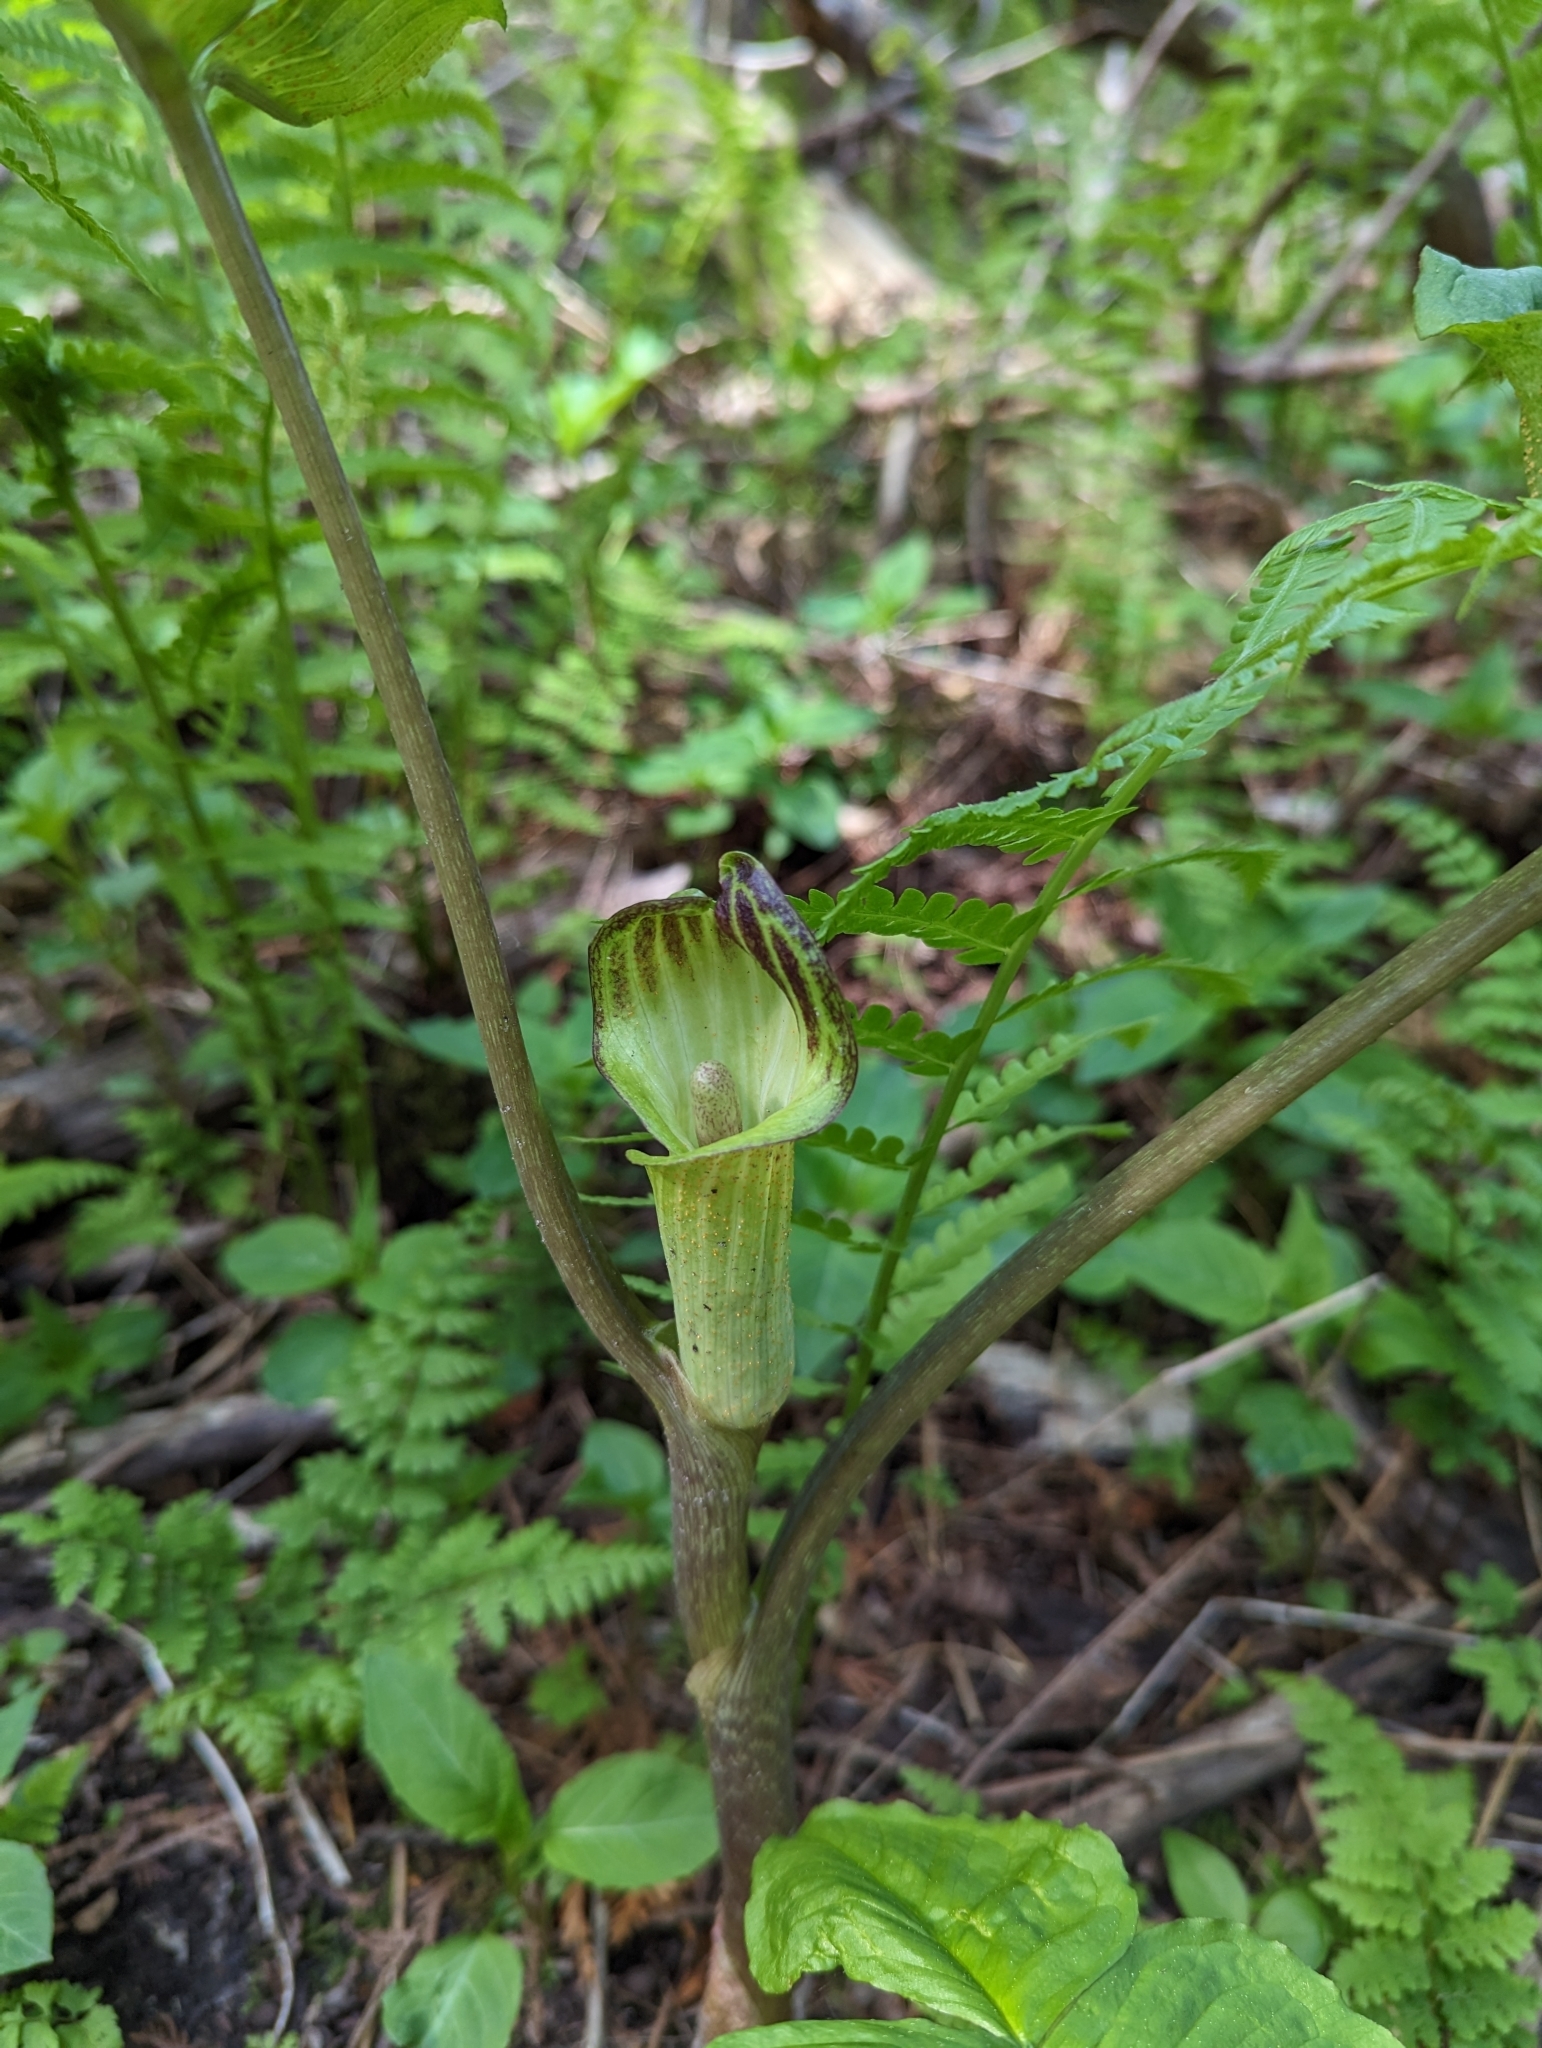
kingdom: Plantae
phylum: Tracheophyta
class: Liliopsida
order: Alismatales
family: Araceae
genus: Arisaema
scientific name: Arisaema triphyllum
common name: Jack-in-the-pulpit
